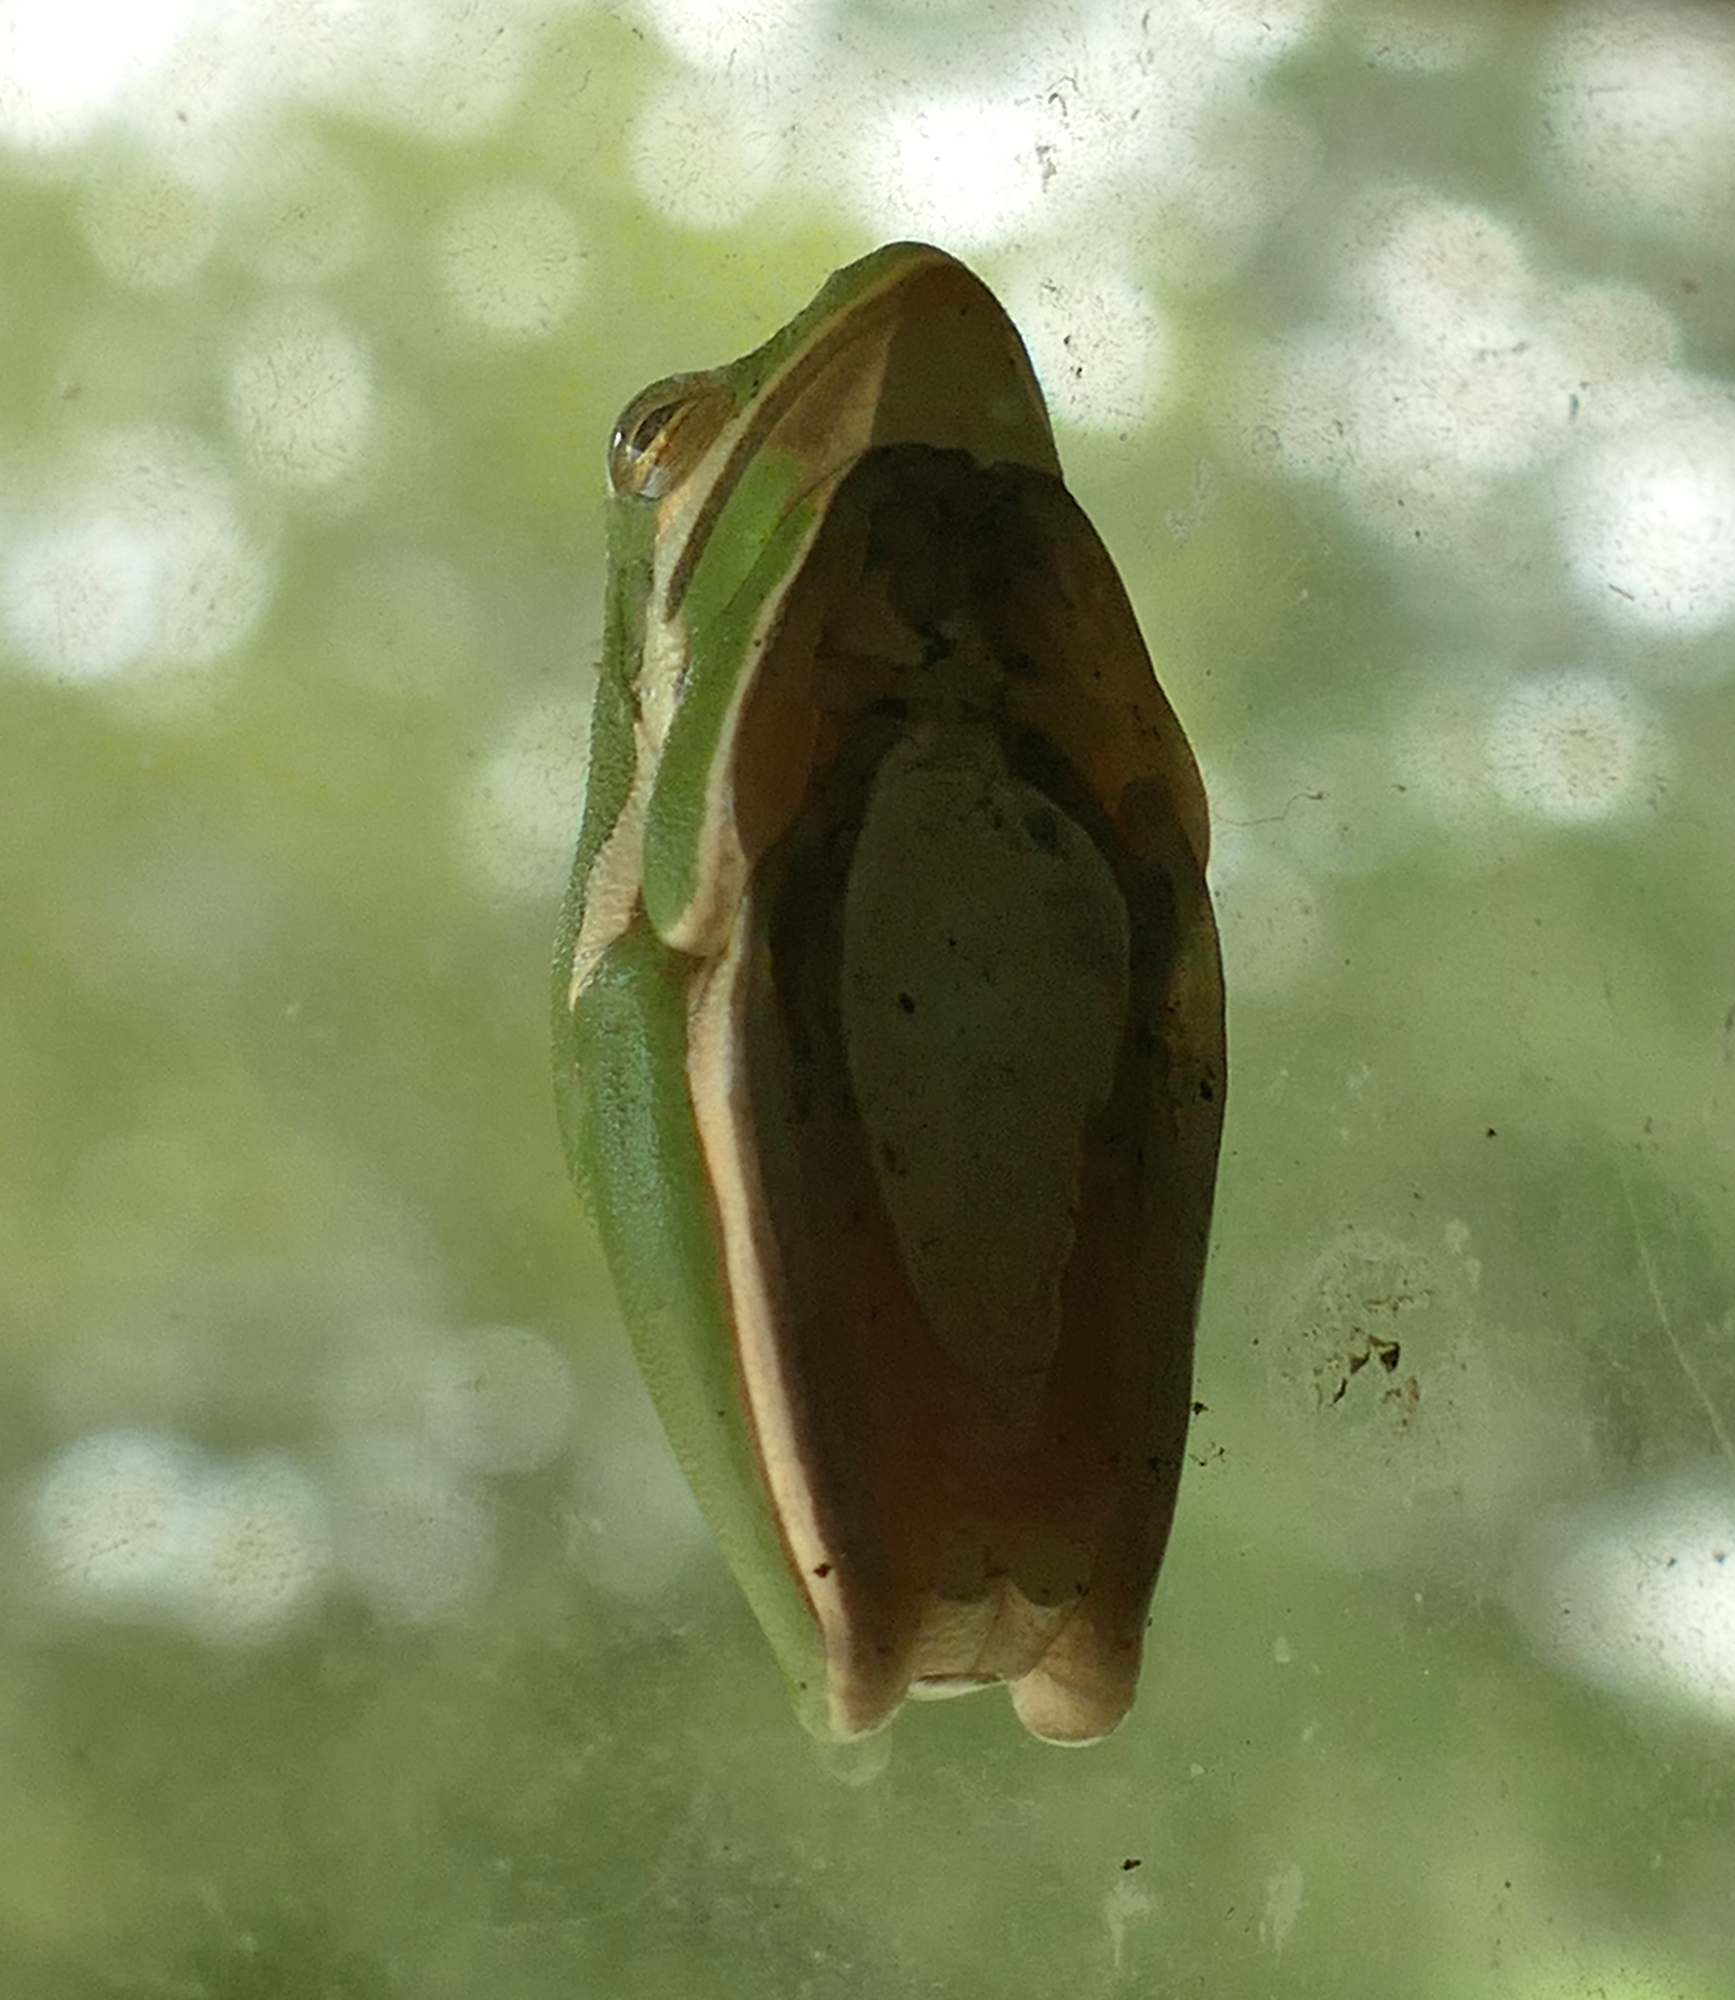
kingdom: Animalia
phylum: Chordata
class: Amphibia
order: Anura
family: Hylidae
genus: Dryophytes
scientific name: Dryophytes cinereus
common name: Green treefrog
